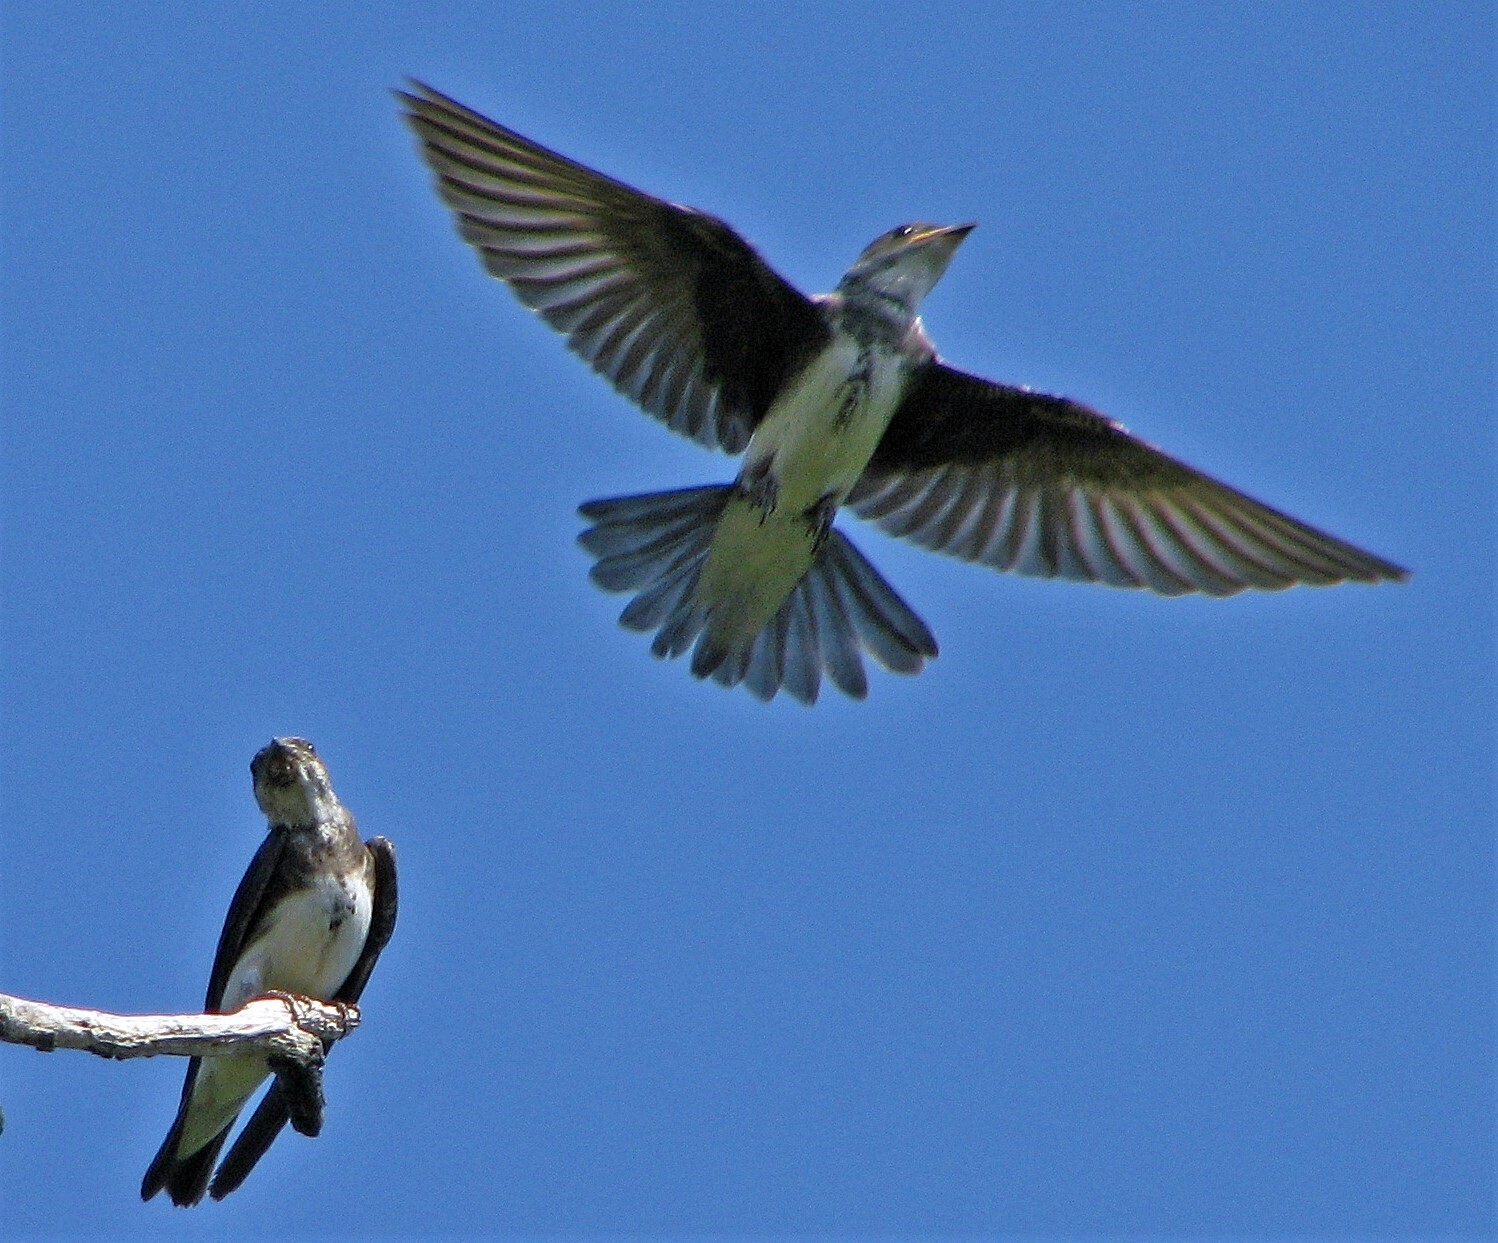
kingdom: Animalia
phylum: Chordata
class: Aves
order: Passeriformes
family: Hirundinidae
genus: Progne
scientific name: Progne tapera
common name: Brown-chested martin
